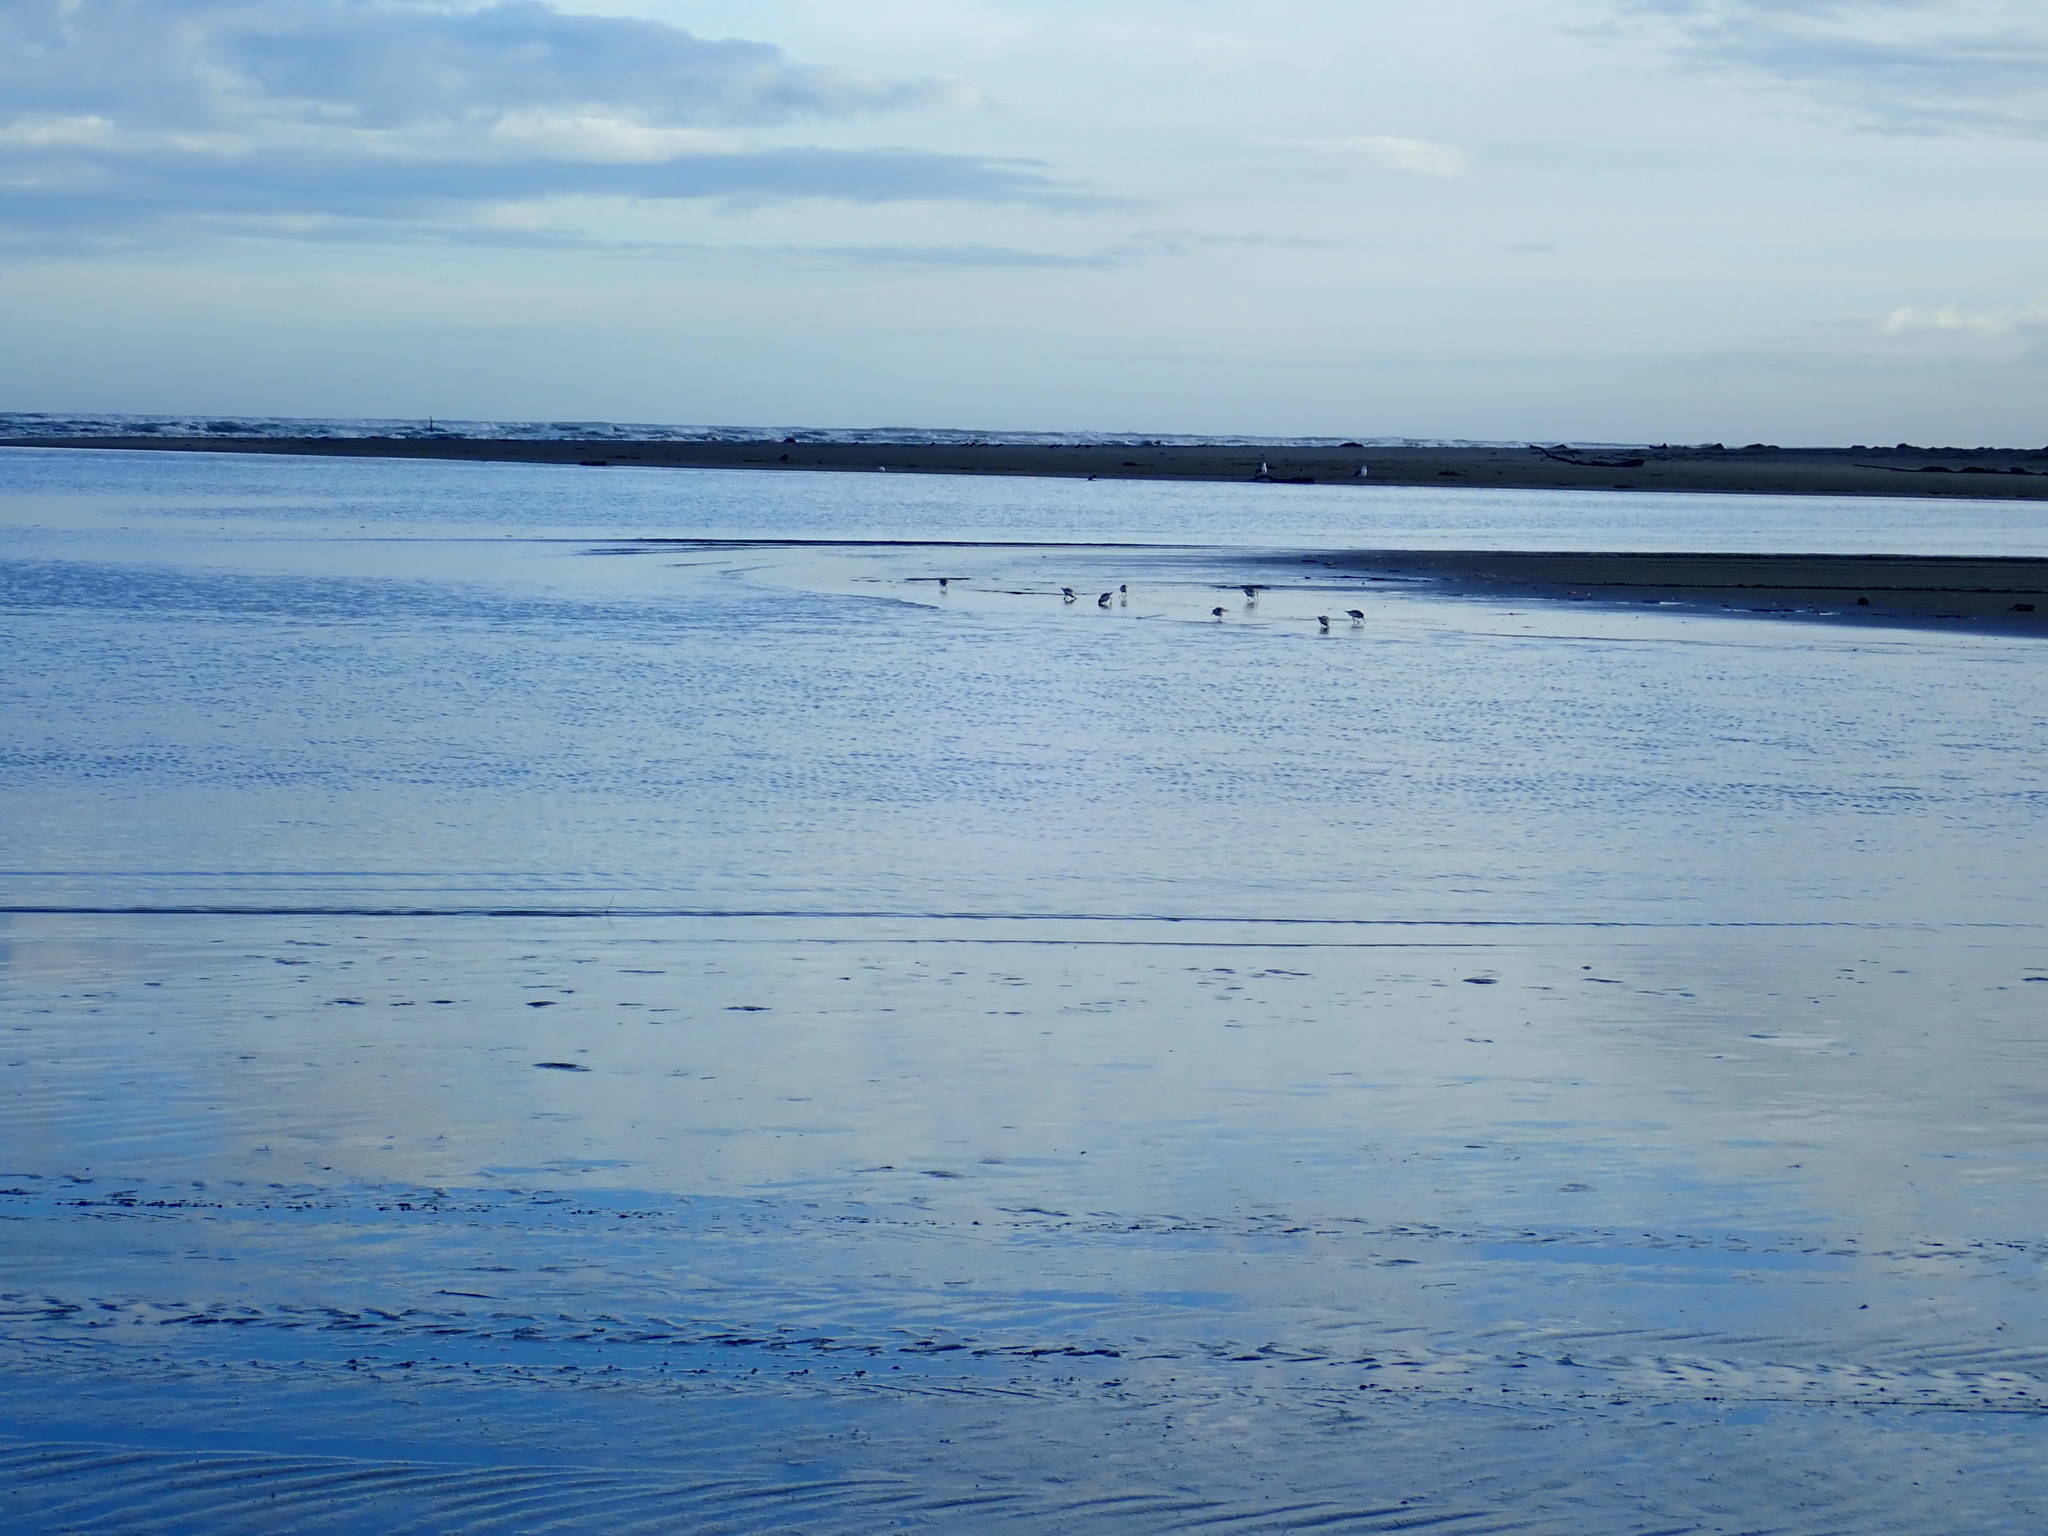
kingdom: Animalia
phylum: Chordata
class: Aves
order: Charadriiformes
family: Charadriidae
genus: Anarhynchus
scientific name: Anarhynchus frontalis
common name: Wrybill
